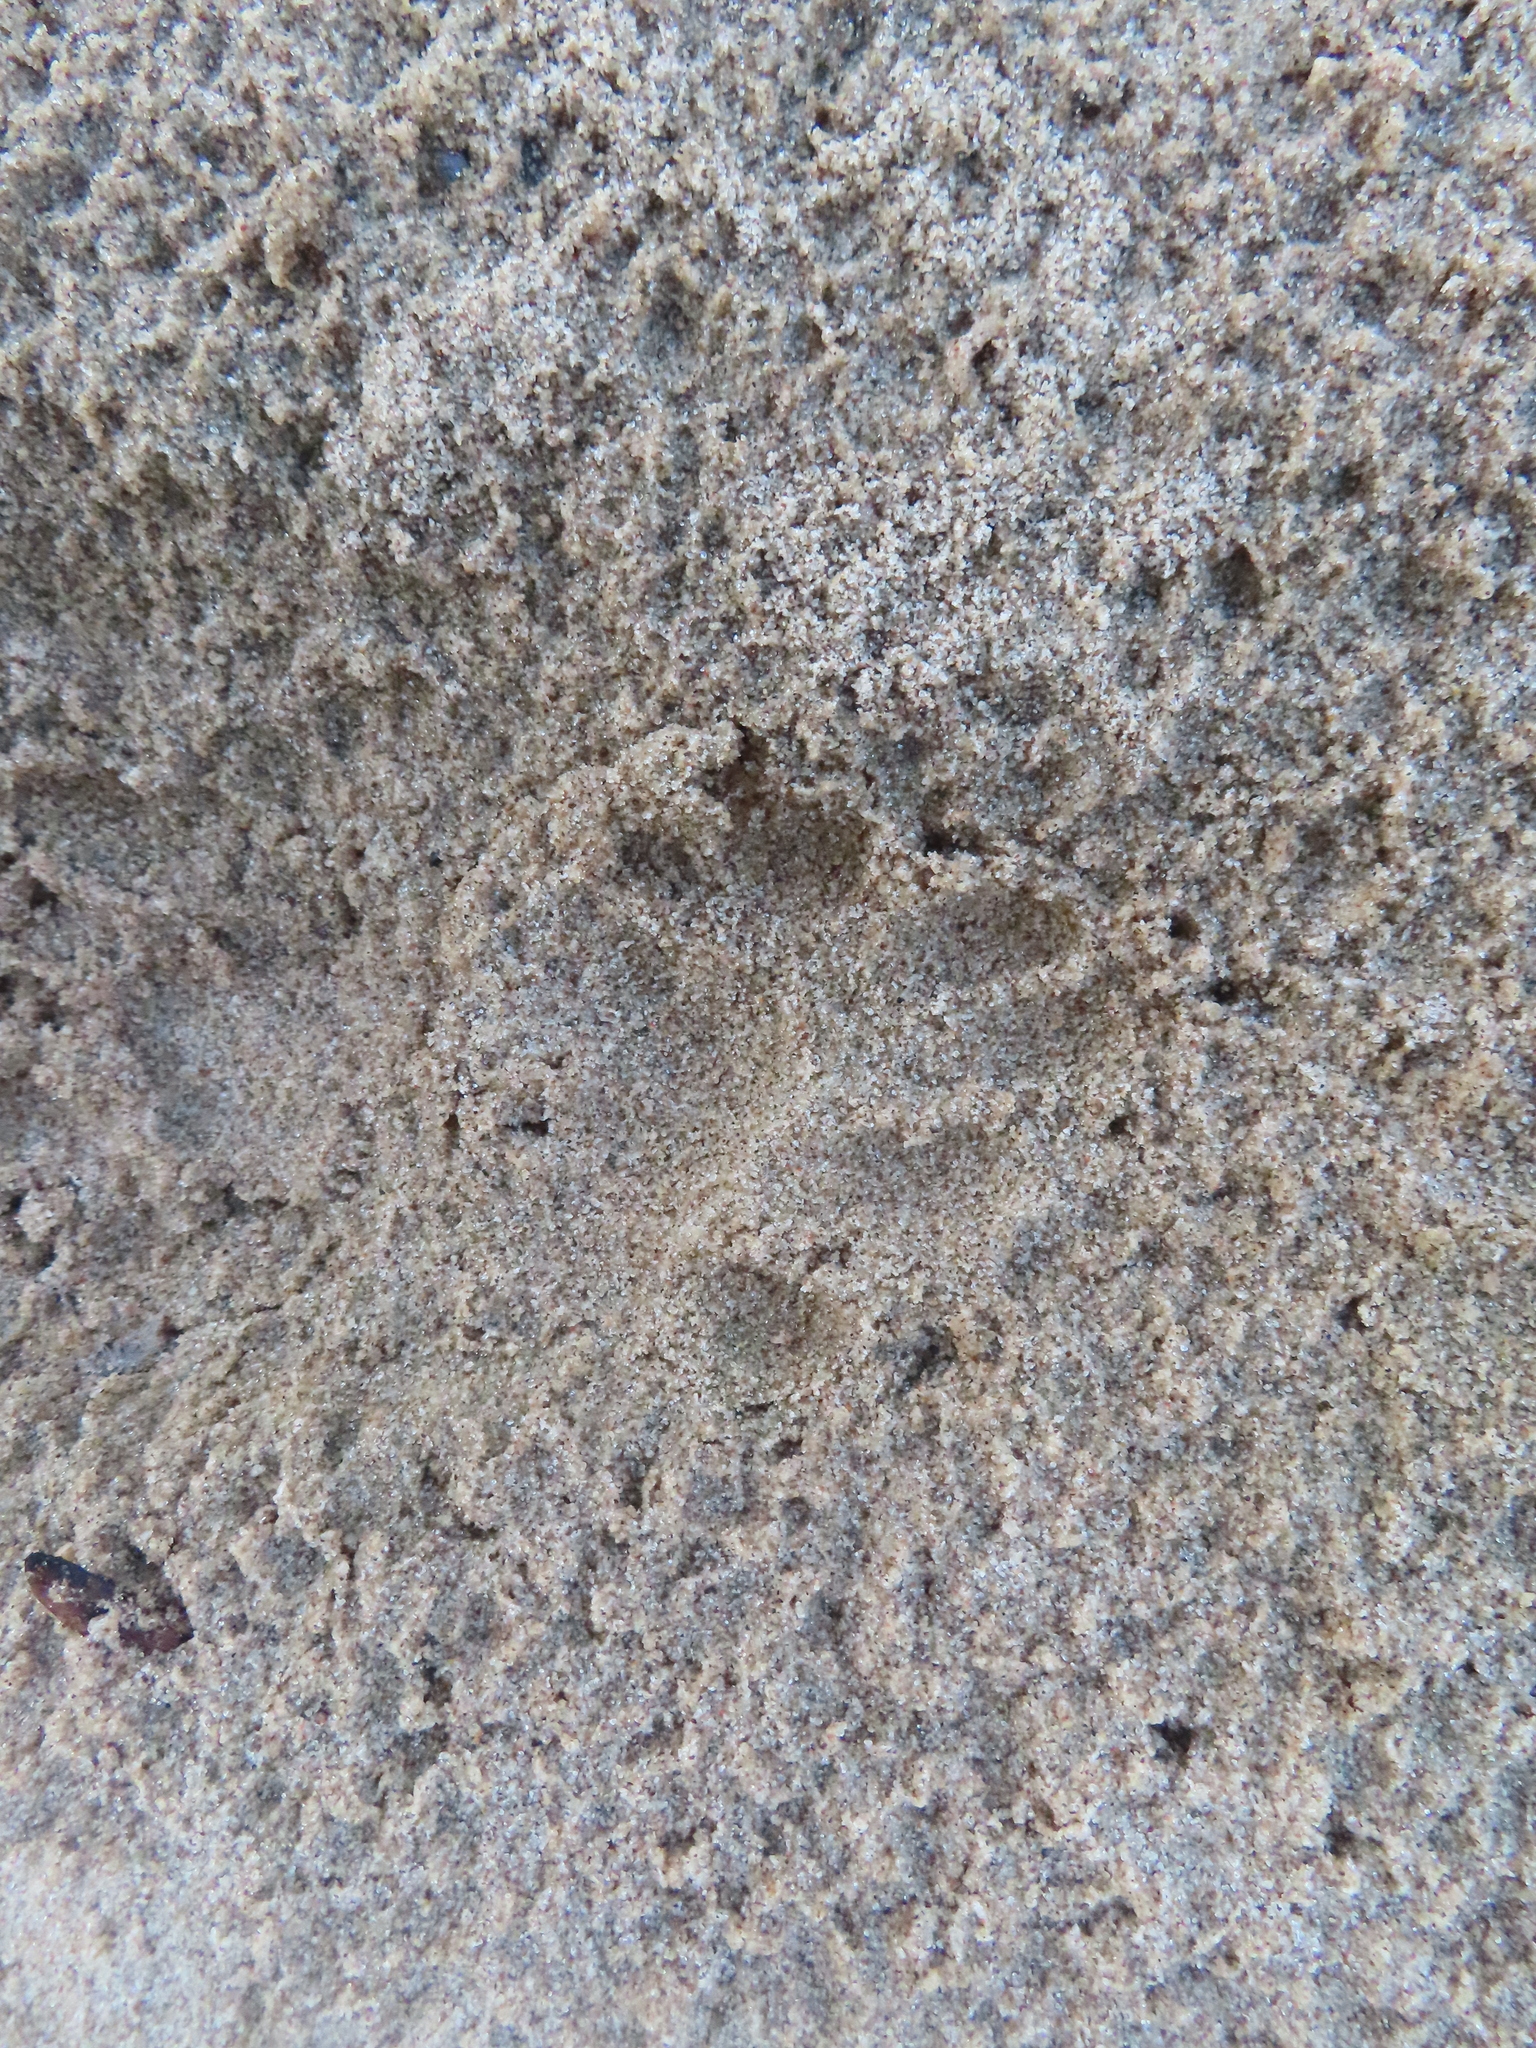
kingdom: Animalia
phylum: Chordata
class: Mammalia
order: Carnivora
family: Procyonidae
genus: Procyon
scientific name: Procyon lotor
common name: Raccoon
